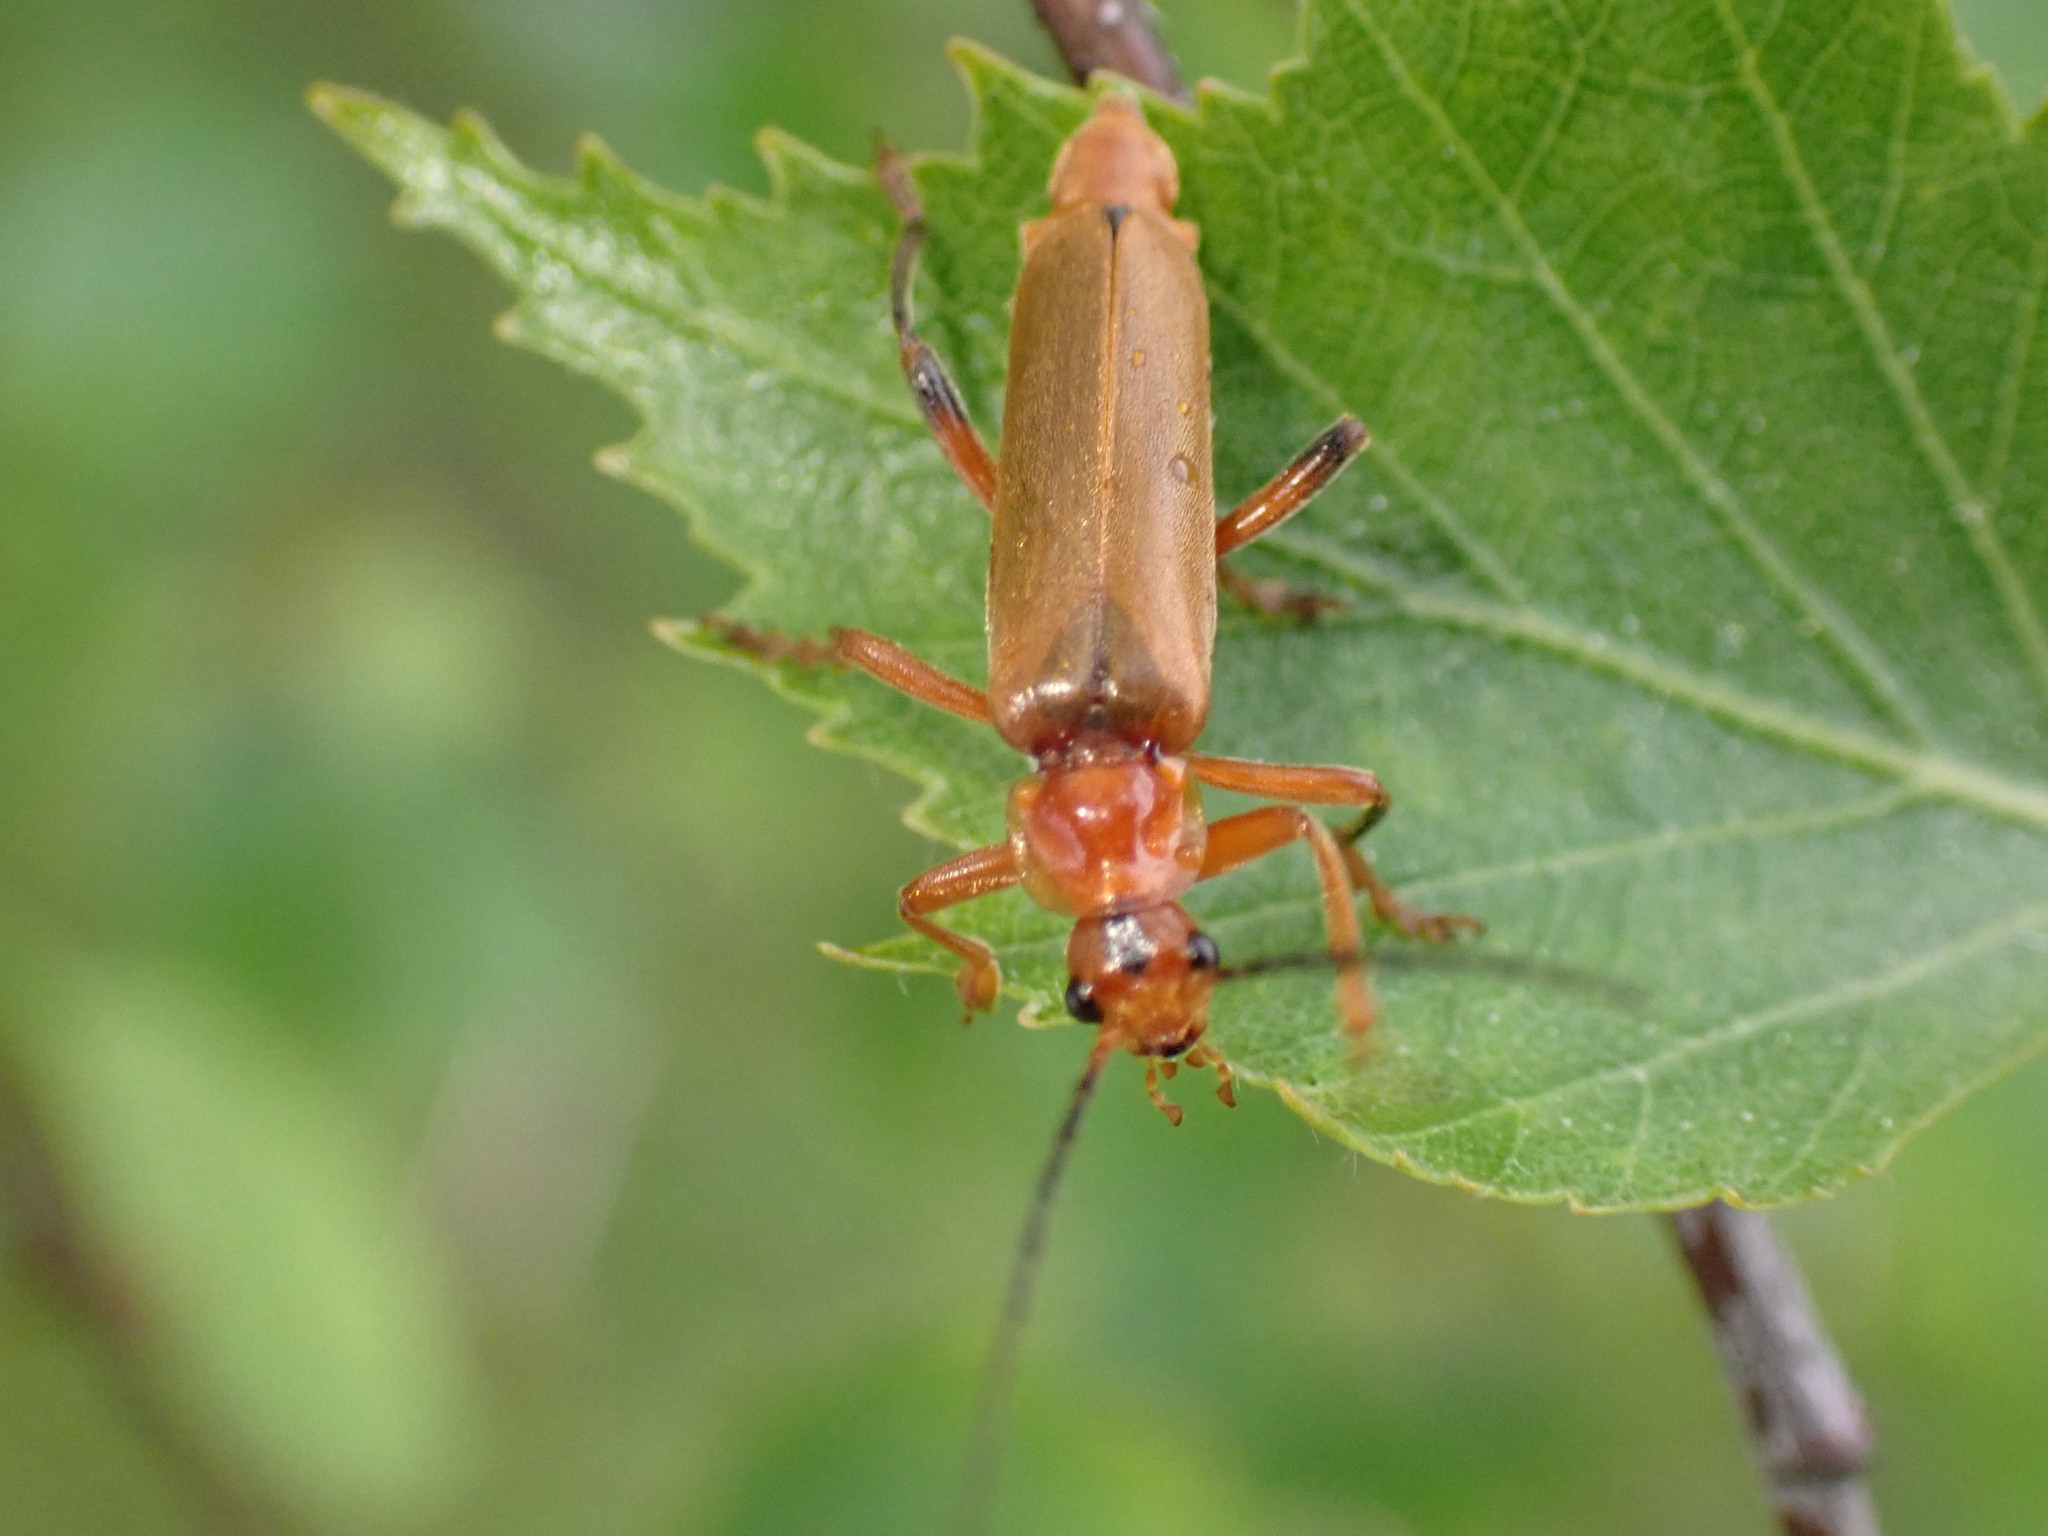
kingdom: Animalia
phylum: Arthropoda
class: Insecta
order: Coleoptera
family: Cantharidae
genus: Cantharis
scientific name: Cantharis livida
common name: Livid soldier beetle
